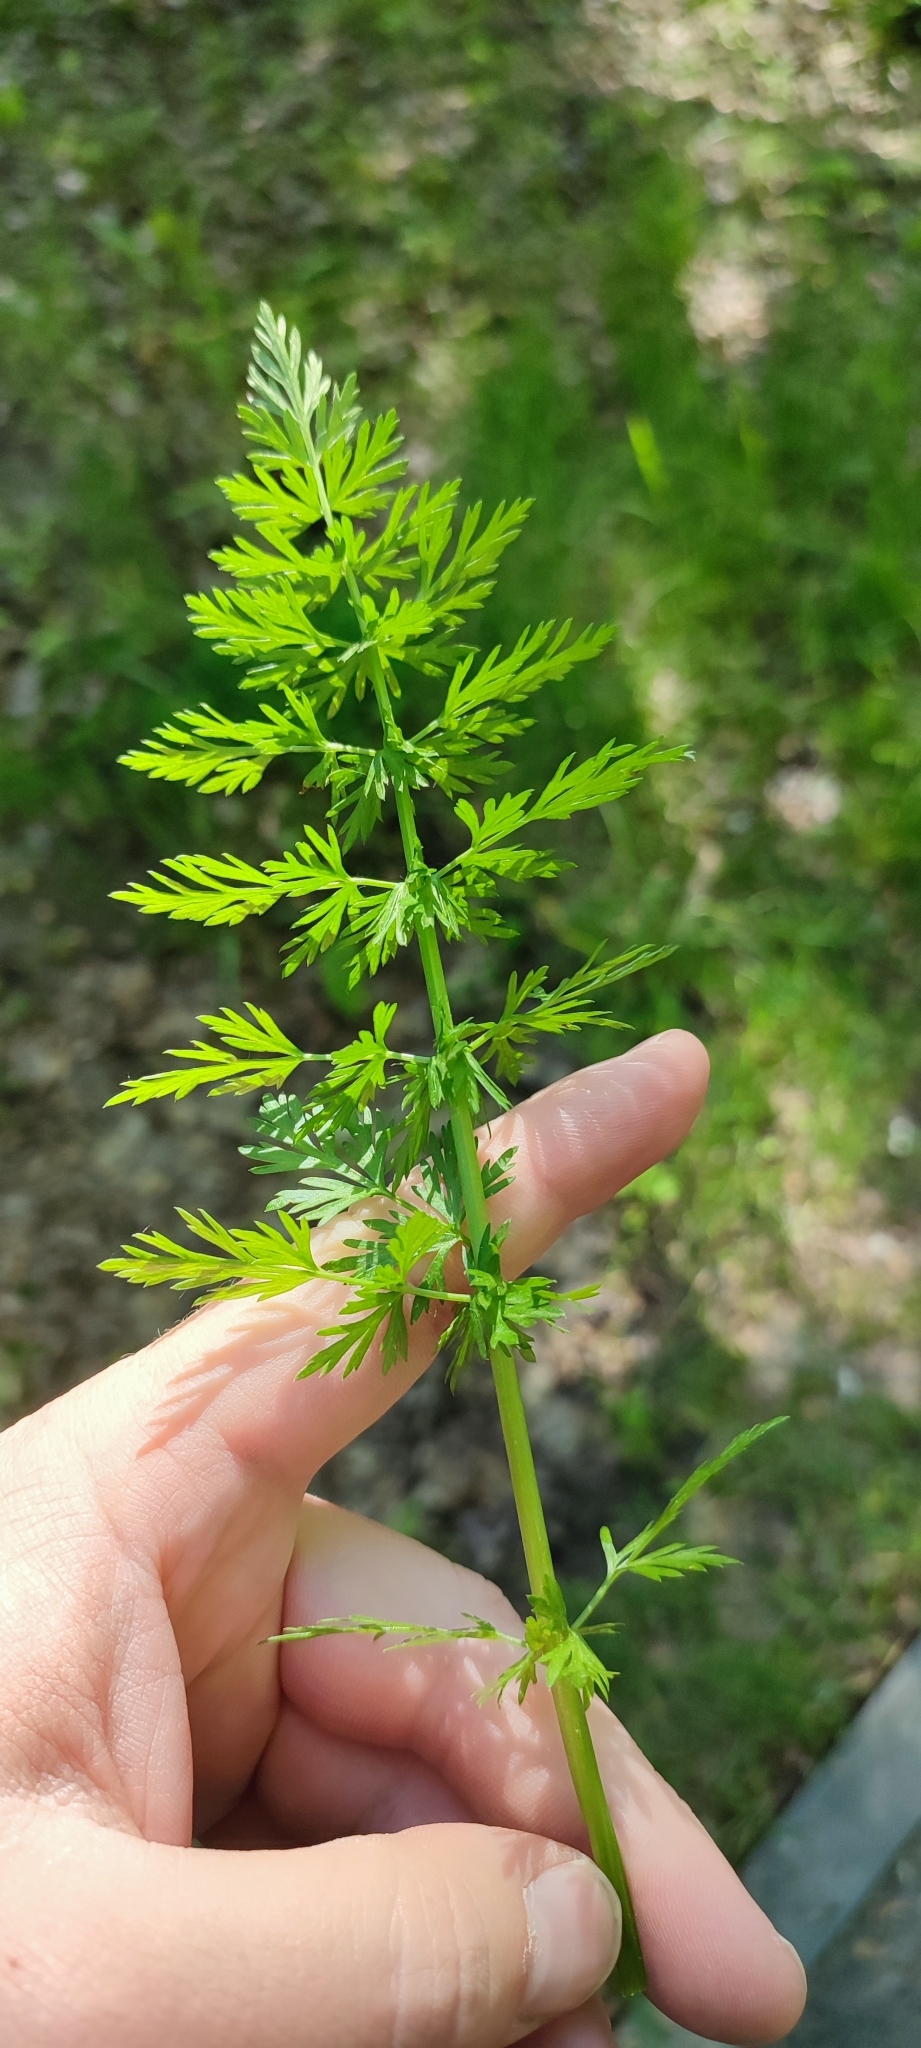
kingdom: Plantae
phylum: Tracheophyta
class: Magnoliopsida
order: Apiales
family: Apiaceae
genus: Carum
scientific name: Carum carvi
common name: Caraway
